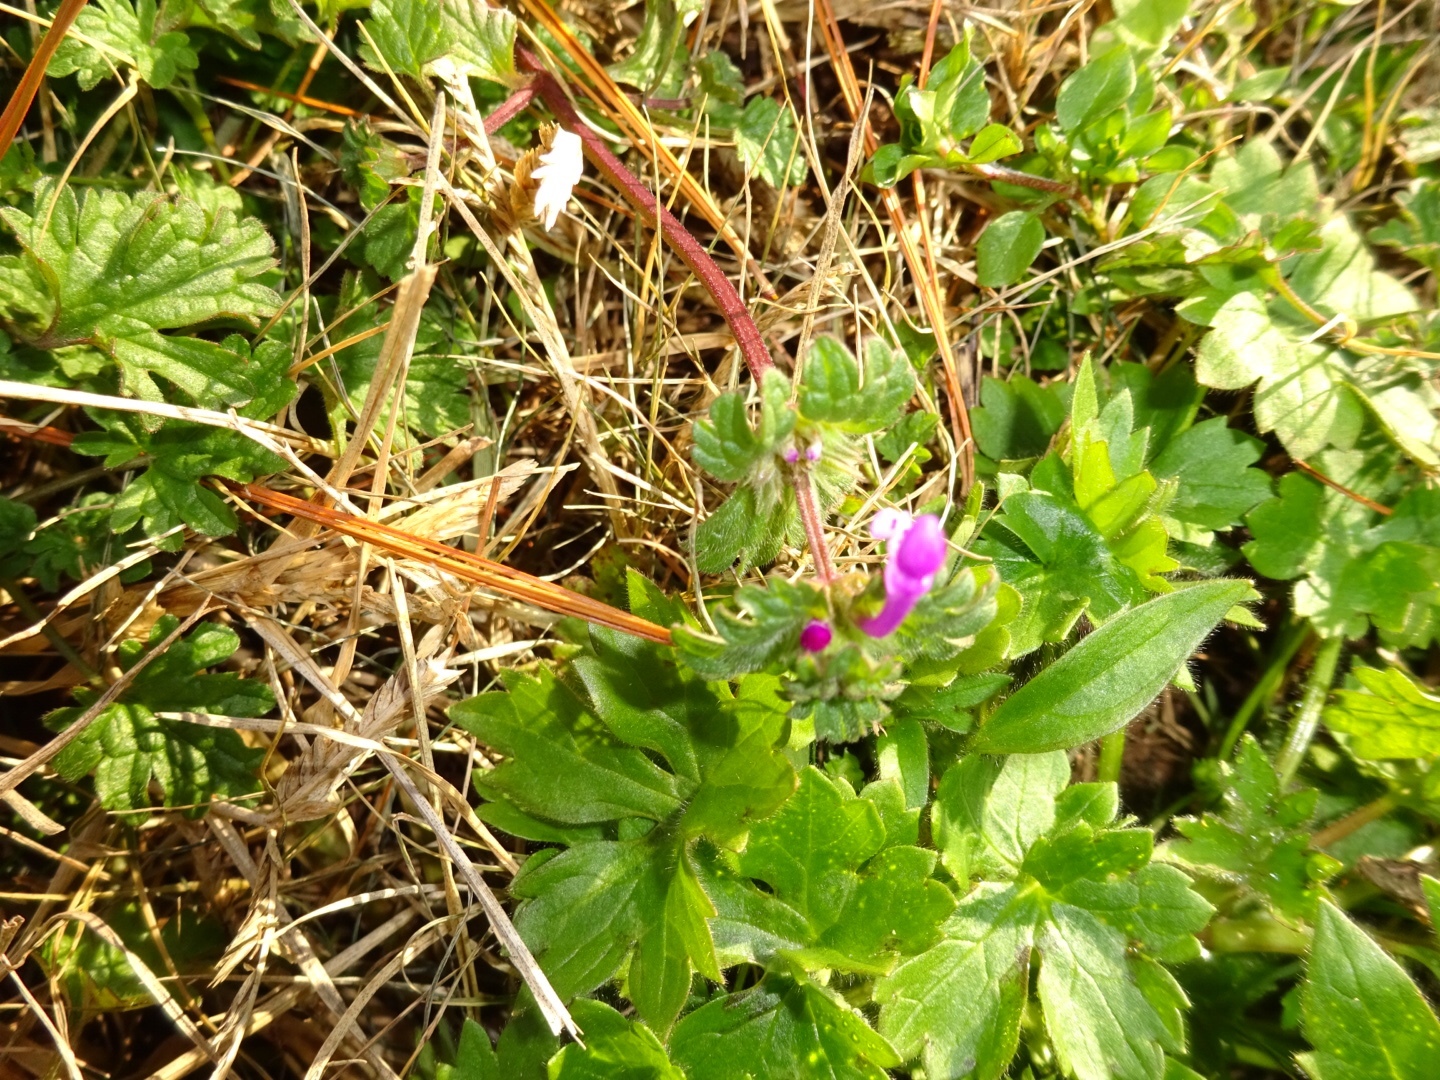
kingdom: Plantae
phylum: Tracheophyta
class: Magnoliopsida
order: Lamiales
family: Lamiaceae
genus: Lamium
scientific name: Lamium amplexicaule
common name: Henbit dead-nettle
